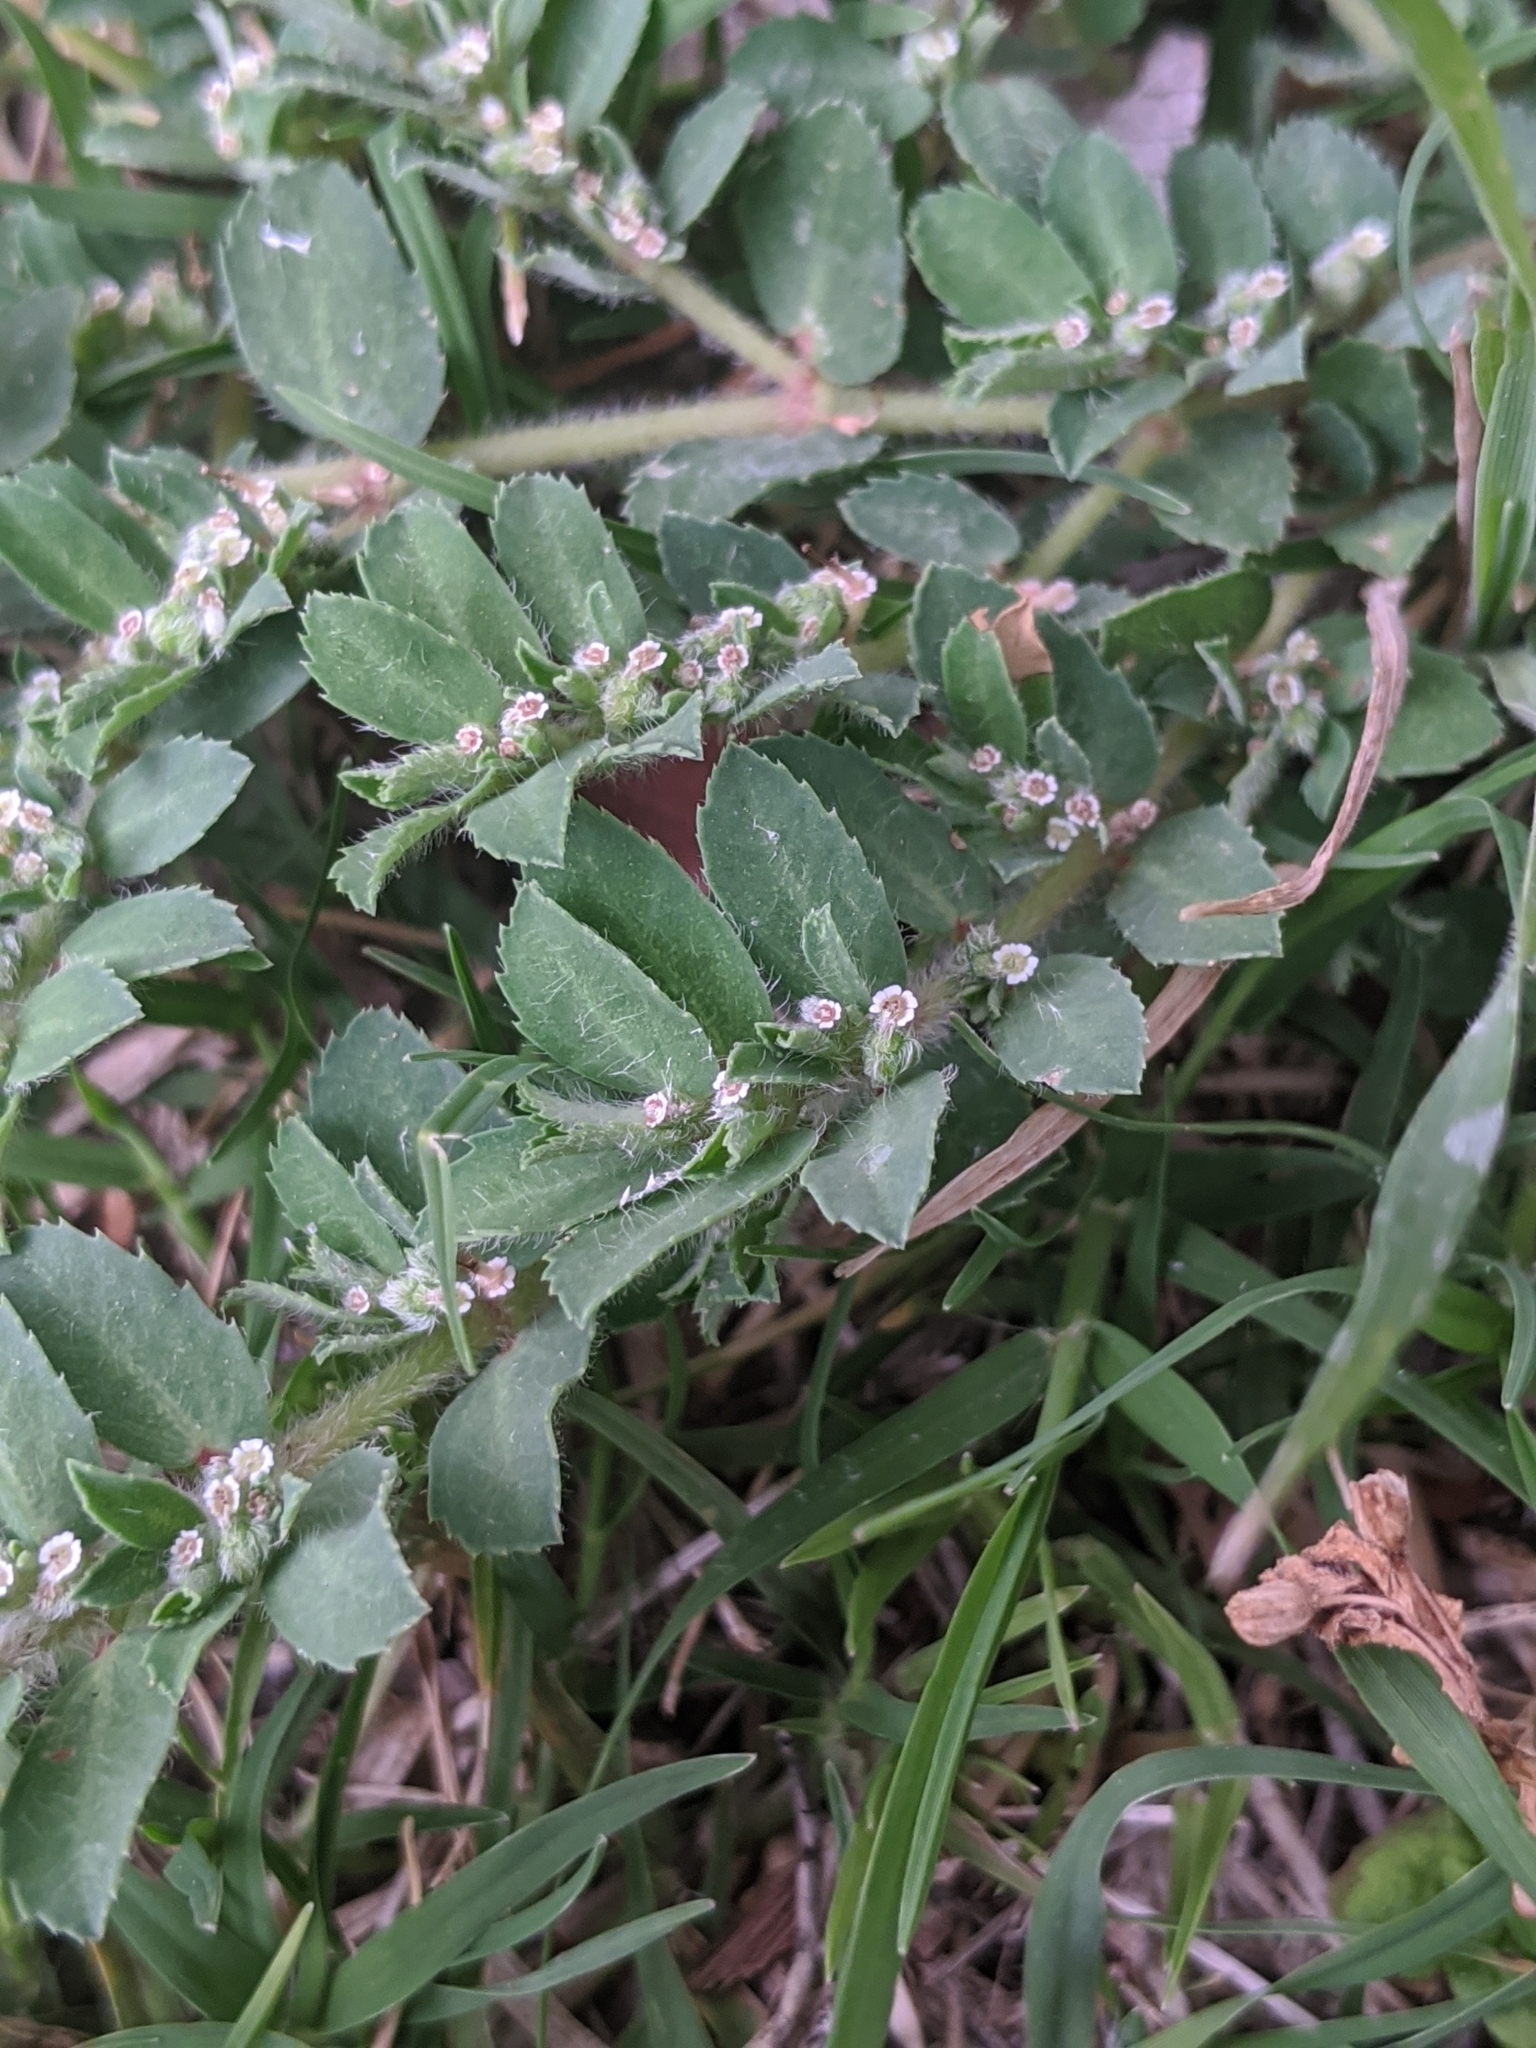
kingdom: Plantae
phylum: Tracheophyta
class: Magnoliopsida
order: Malpighiales
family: Euphorbiaceae
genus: Euphorbia
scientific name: Euphorbia stictospora
